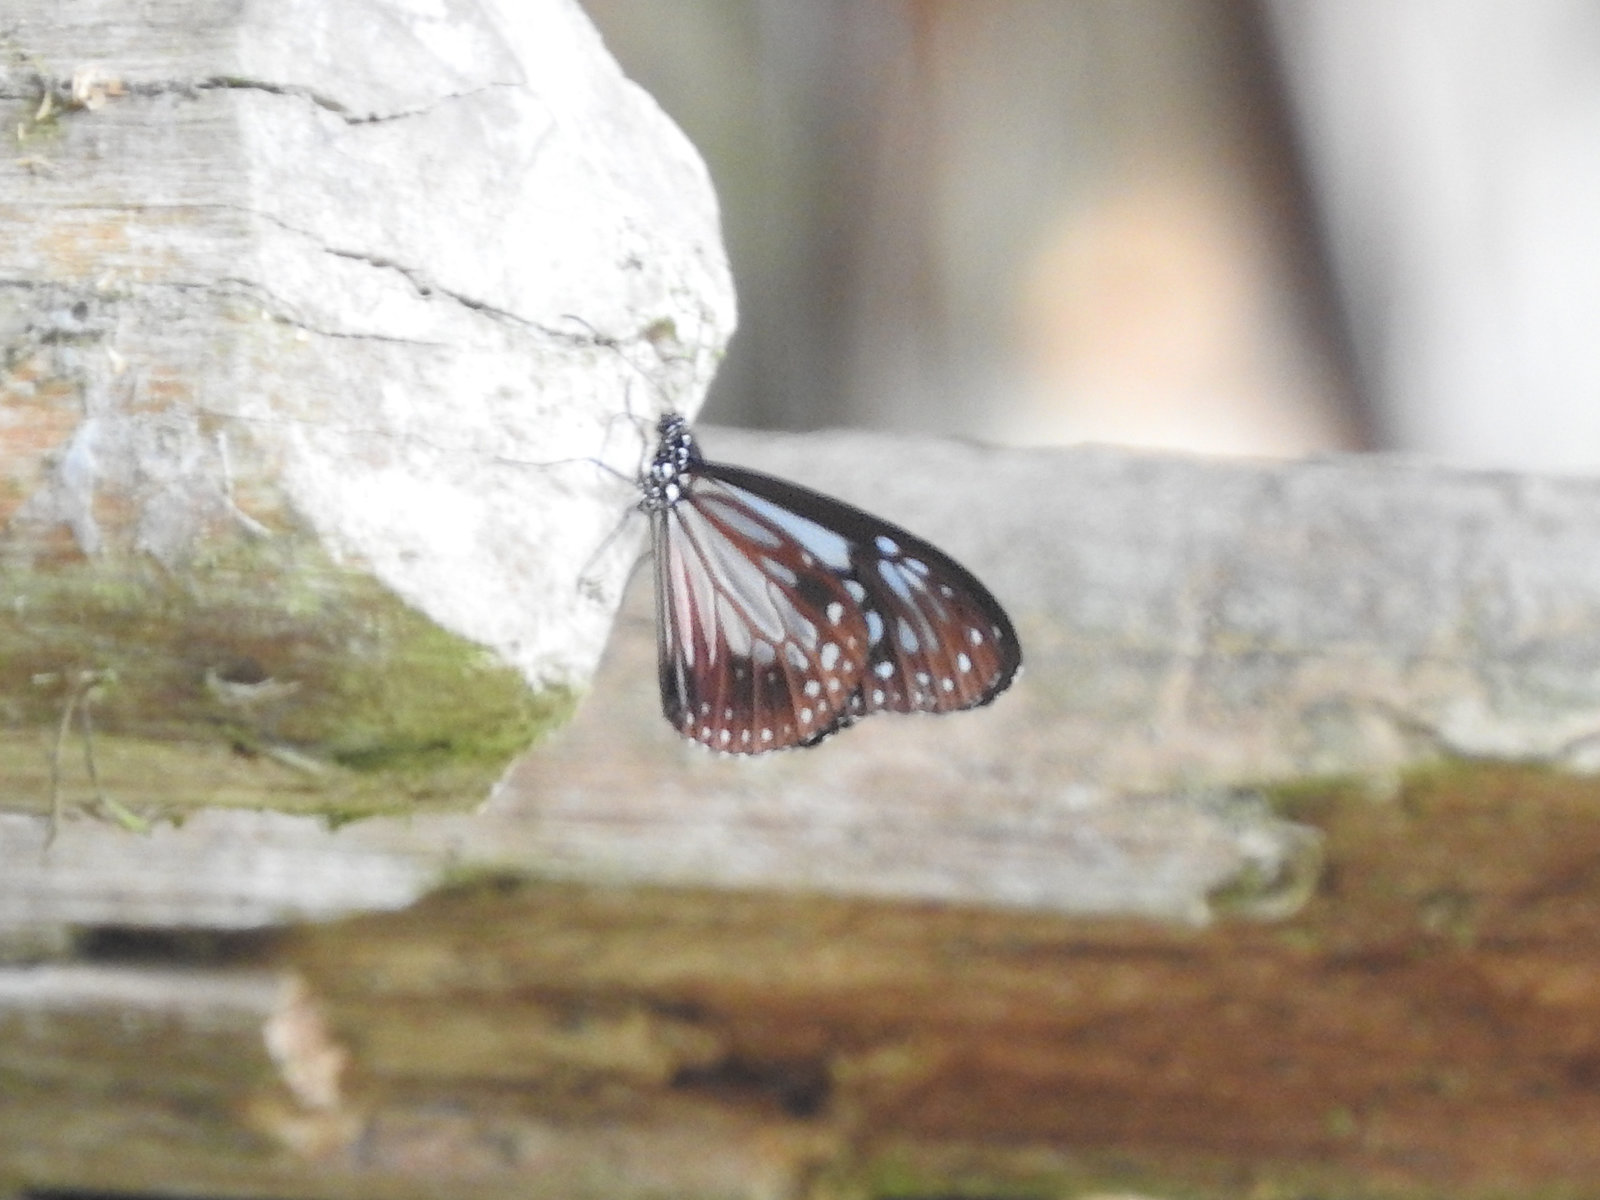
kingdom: Animalia
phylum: Arthropoda
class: Insecta
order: Lepidoptera
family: Nymphalidae
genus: Parantica
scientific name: Parantica aglea
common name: Glassy tiger
